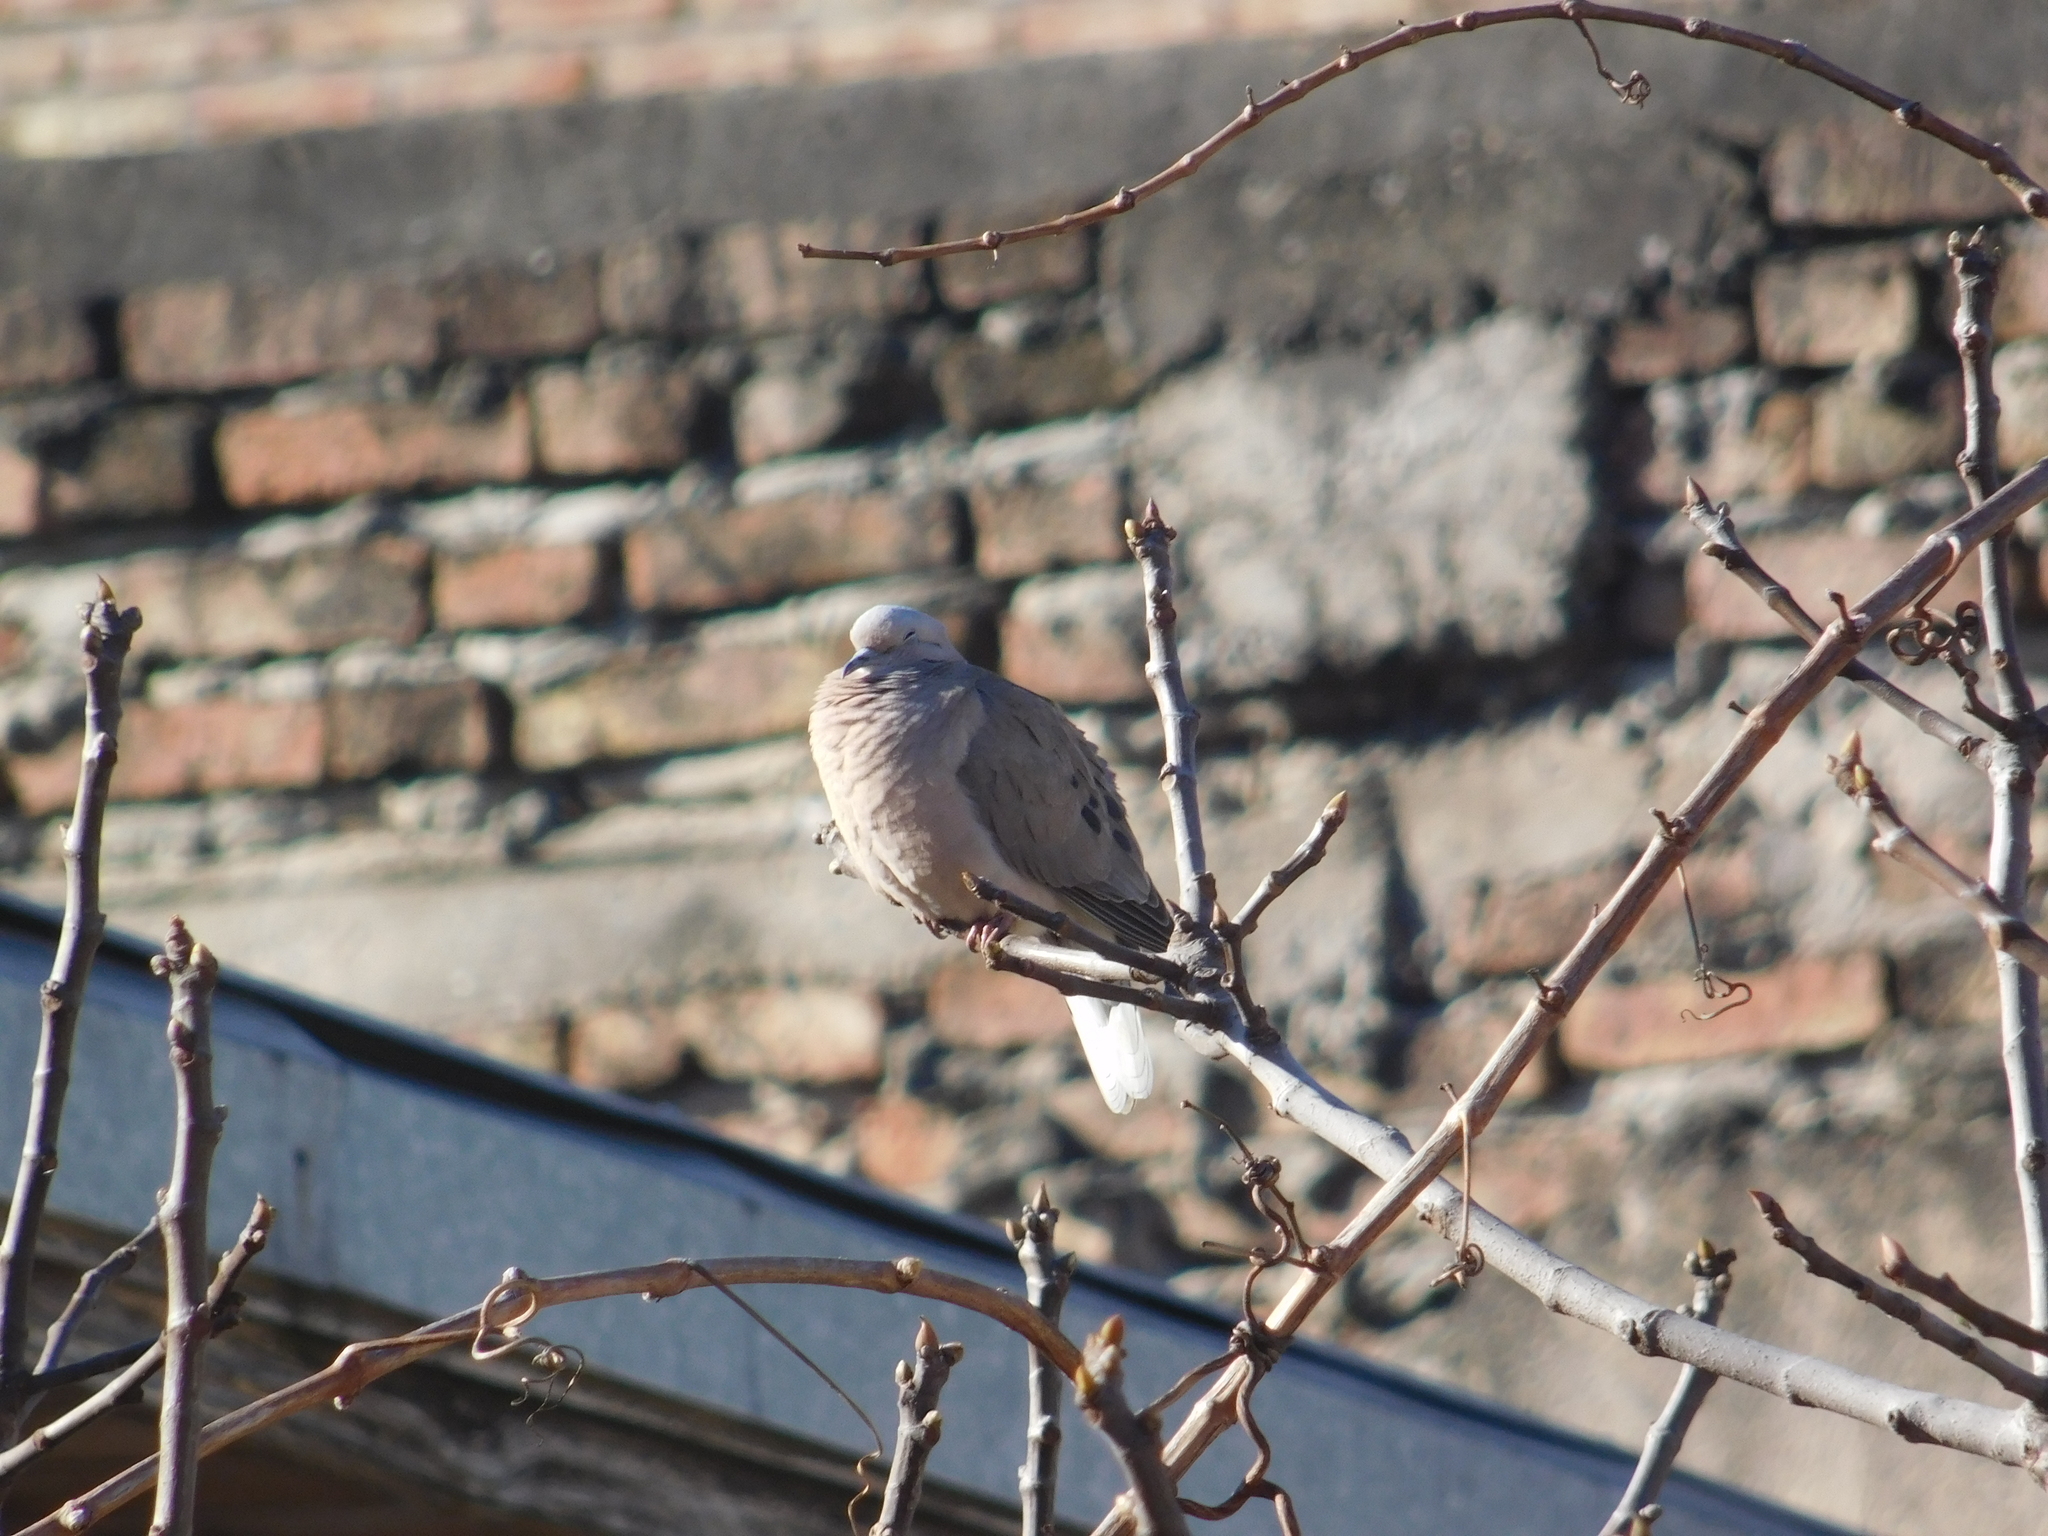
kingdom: Animalia
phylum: Chordata
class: Aves
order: Columbiformes
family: Columbidae
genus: Zenaida
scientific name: Zenaida auriculata
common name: Eared dove
